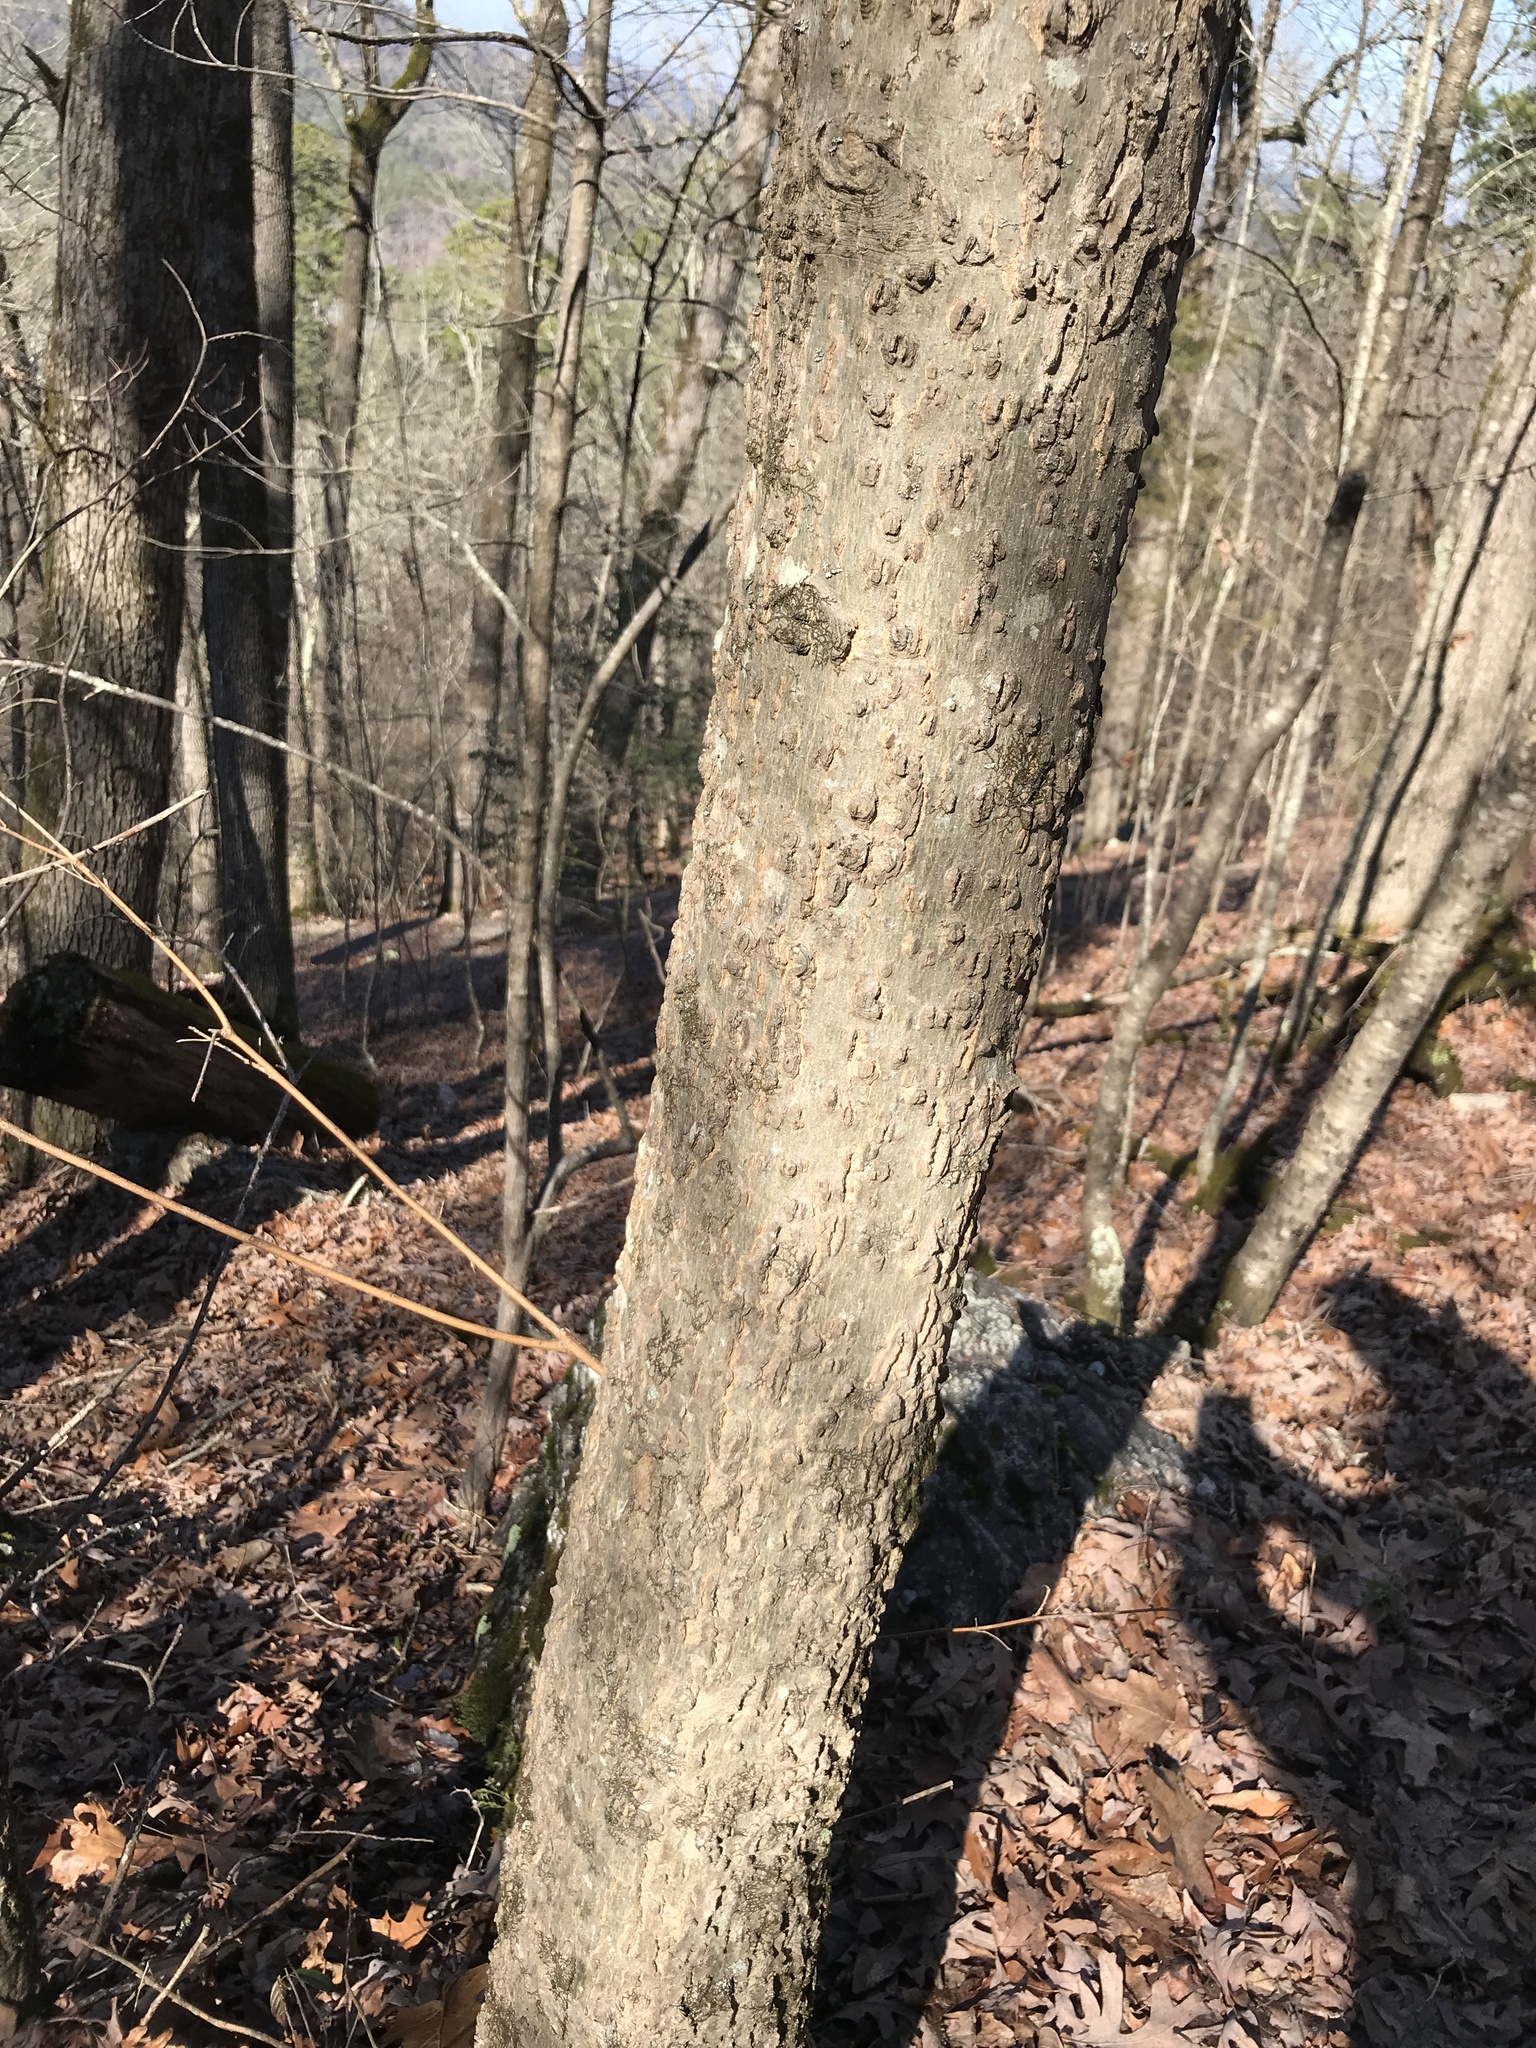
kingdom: Plantae
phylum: Tracheophyta
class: Magnoliopsida
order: Rosales
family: Cannabaceae
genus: Celtis
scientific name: Celtis laevigata
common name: Sugarberry
